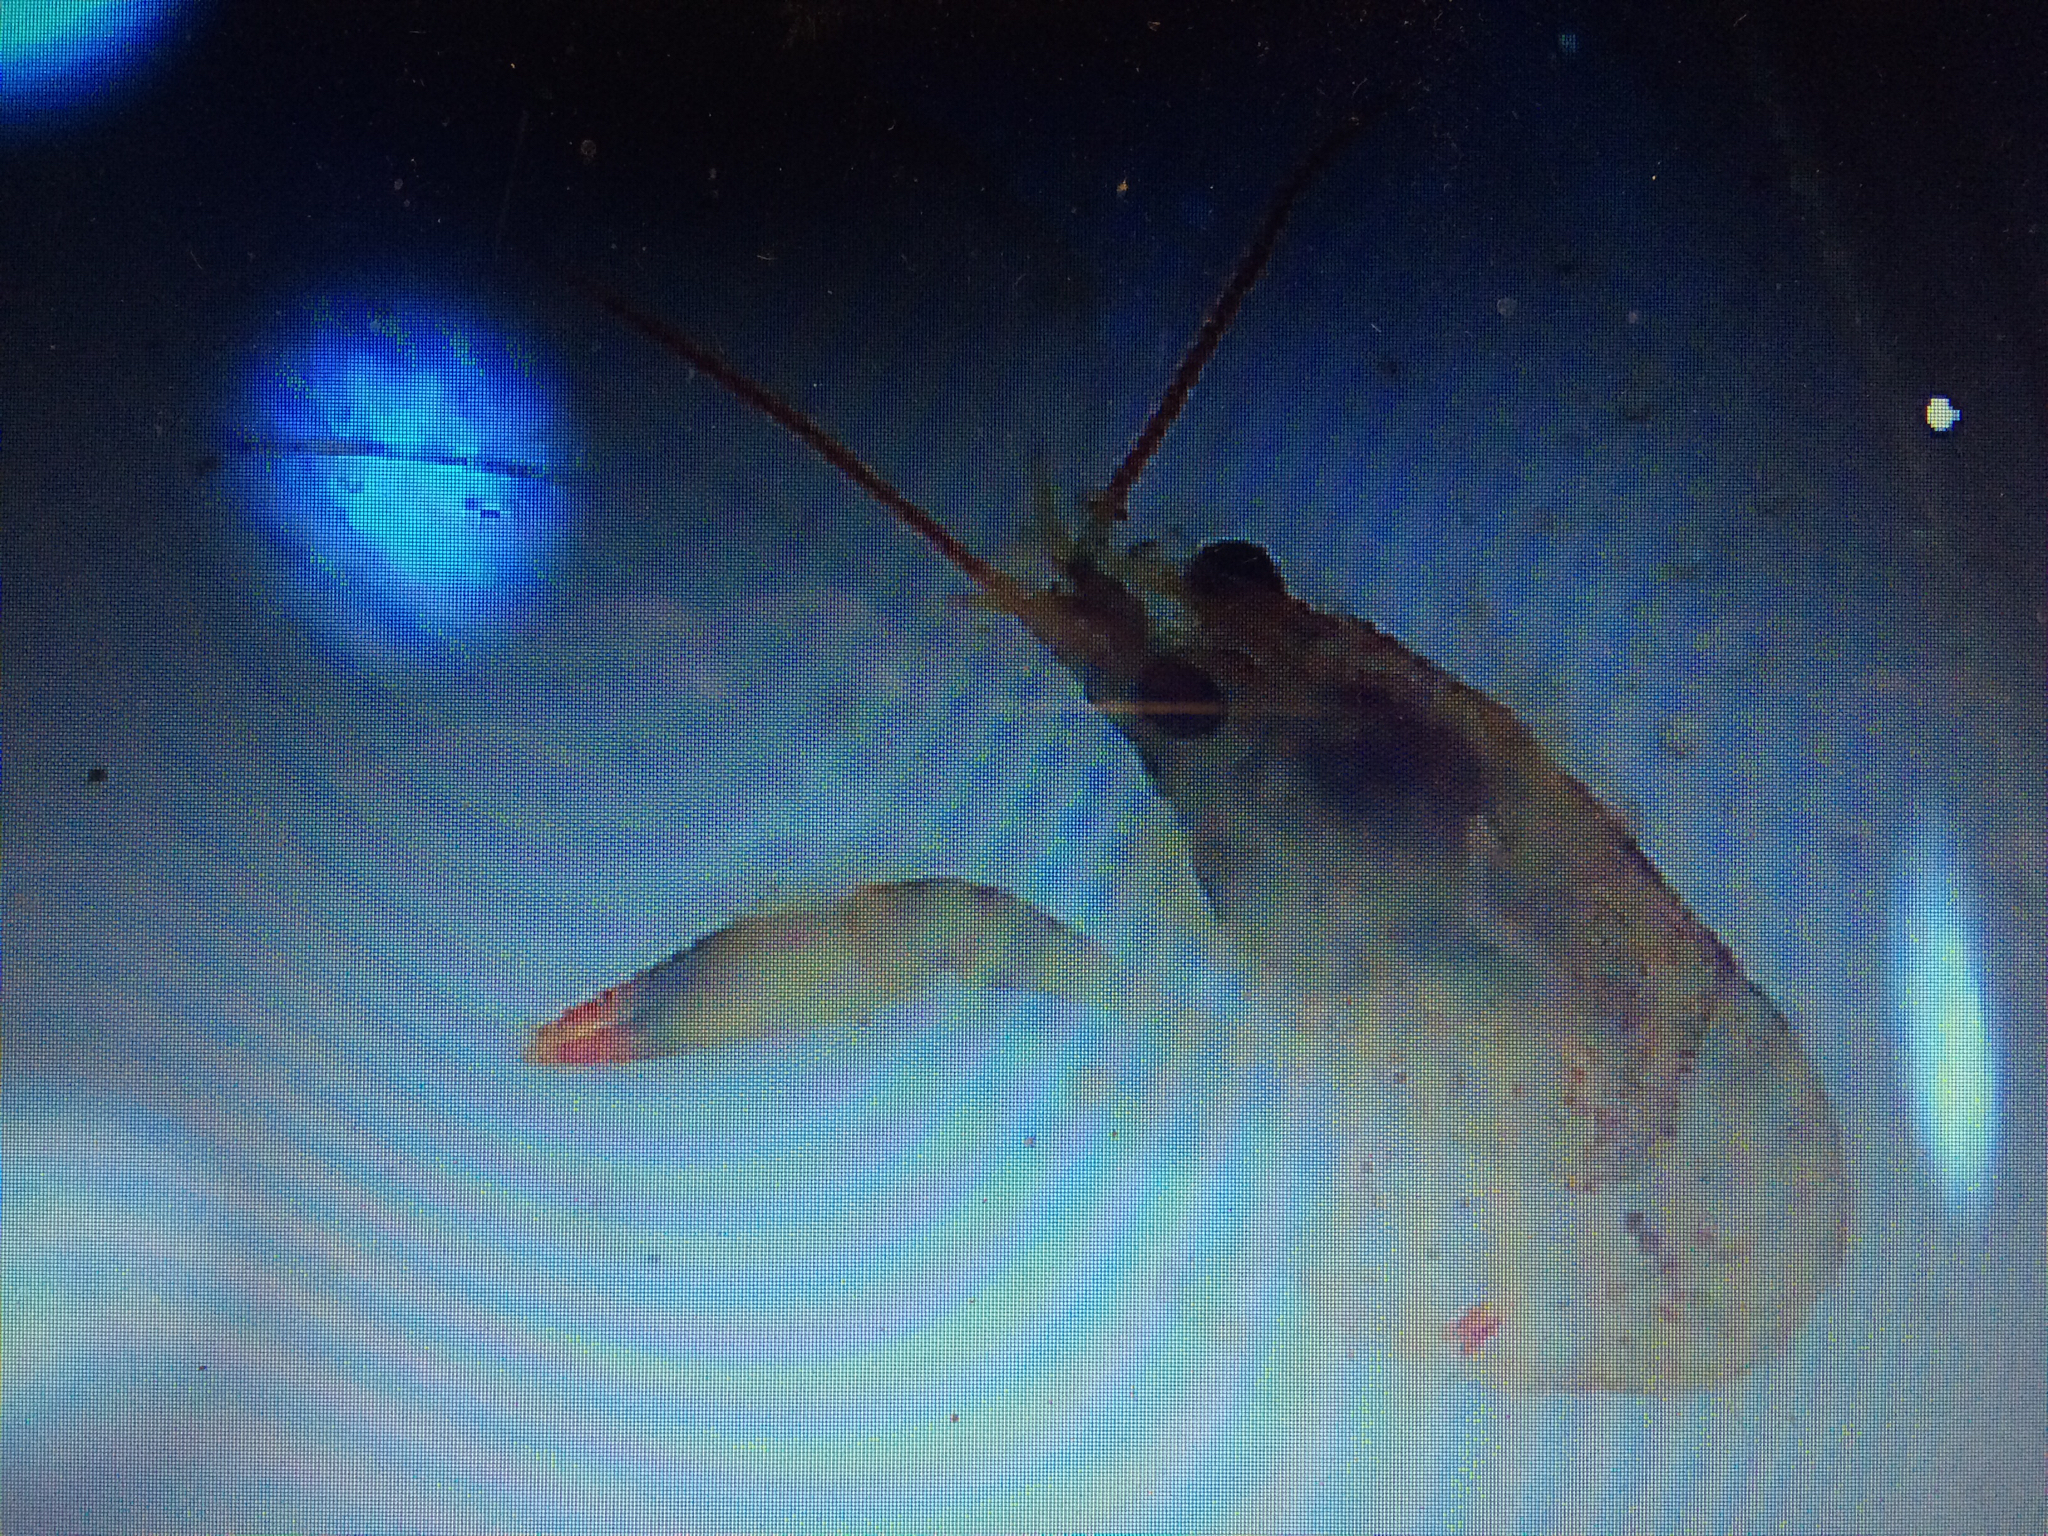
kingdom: Animalia
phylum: Arthropoda
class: Malacostraca
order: Decapoda
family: Cambaridae
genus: Faxonius
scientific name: Faxonius rusticus
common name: Rusty crayfish
